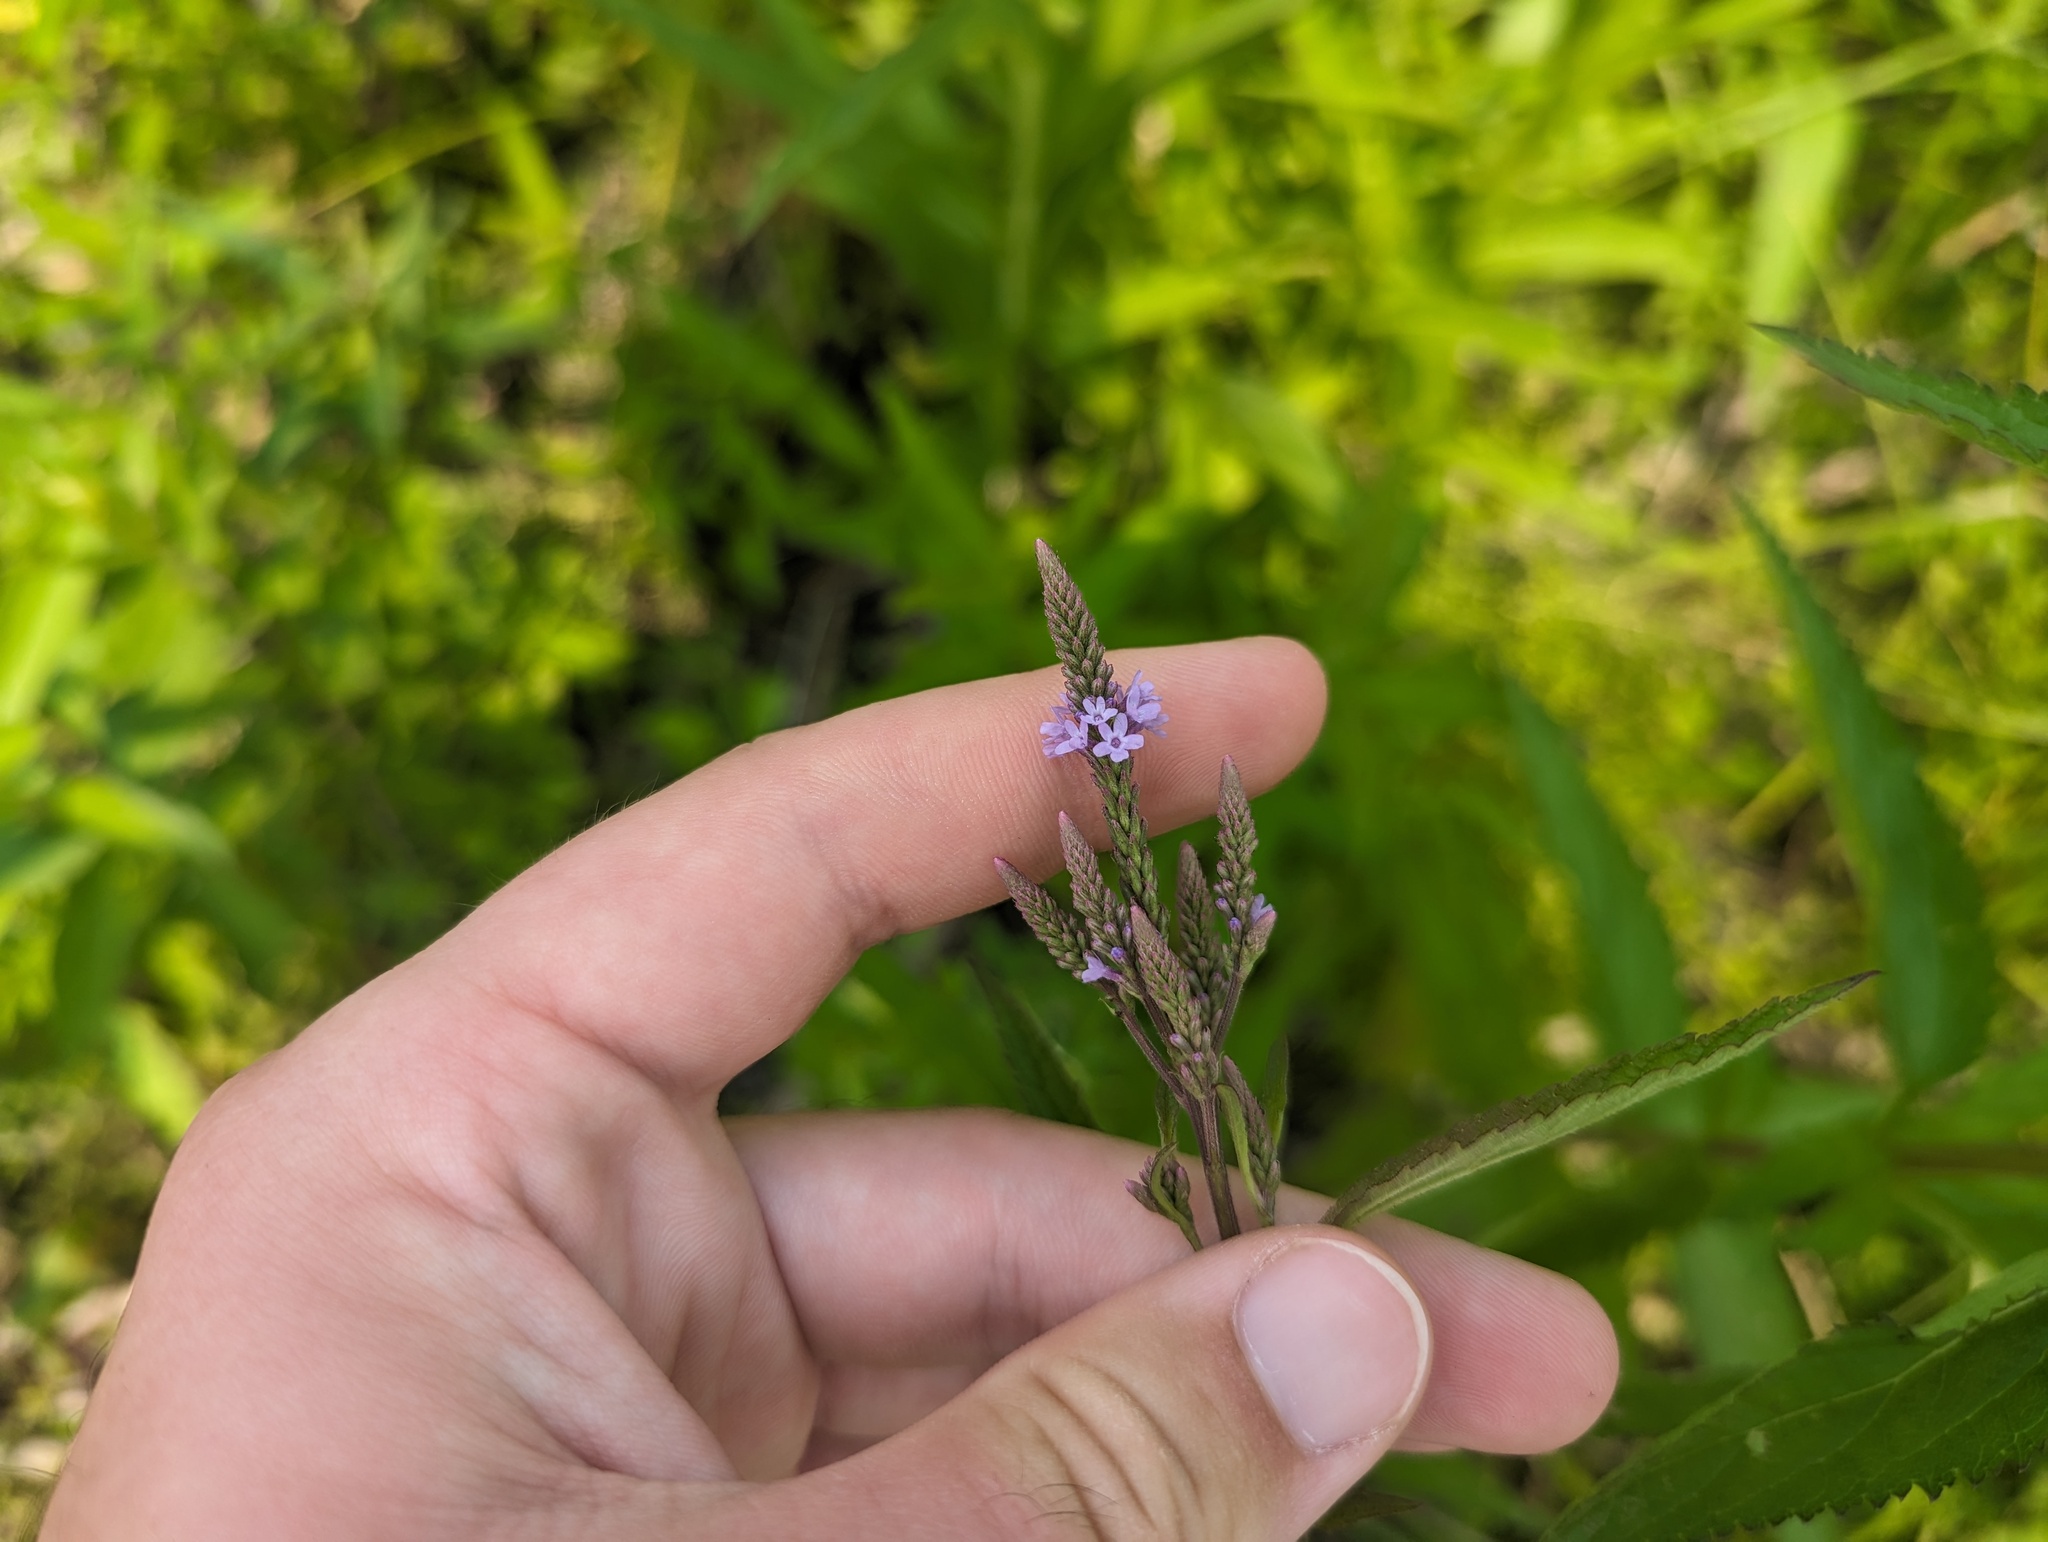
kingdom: Plantae
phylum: Tracheophyta
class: Magnoliopsida
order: Lamiales
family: Verbenaceae
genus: Verbena
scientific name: Verbena hastata
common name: American blue vervain
